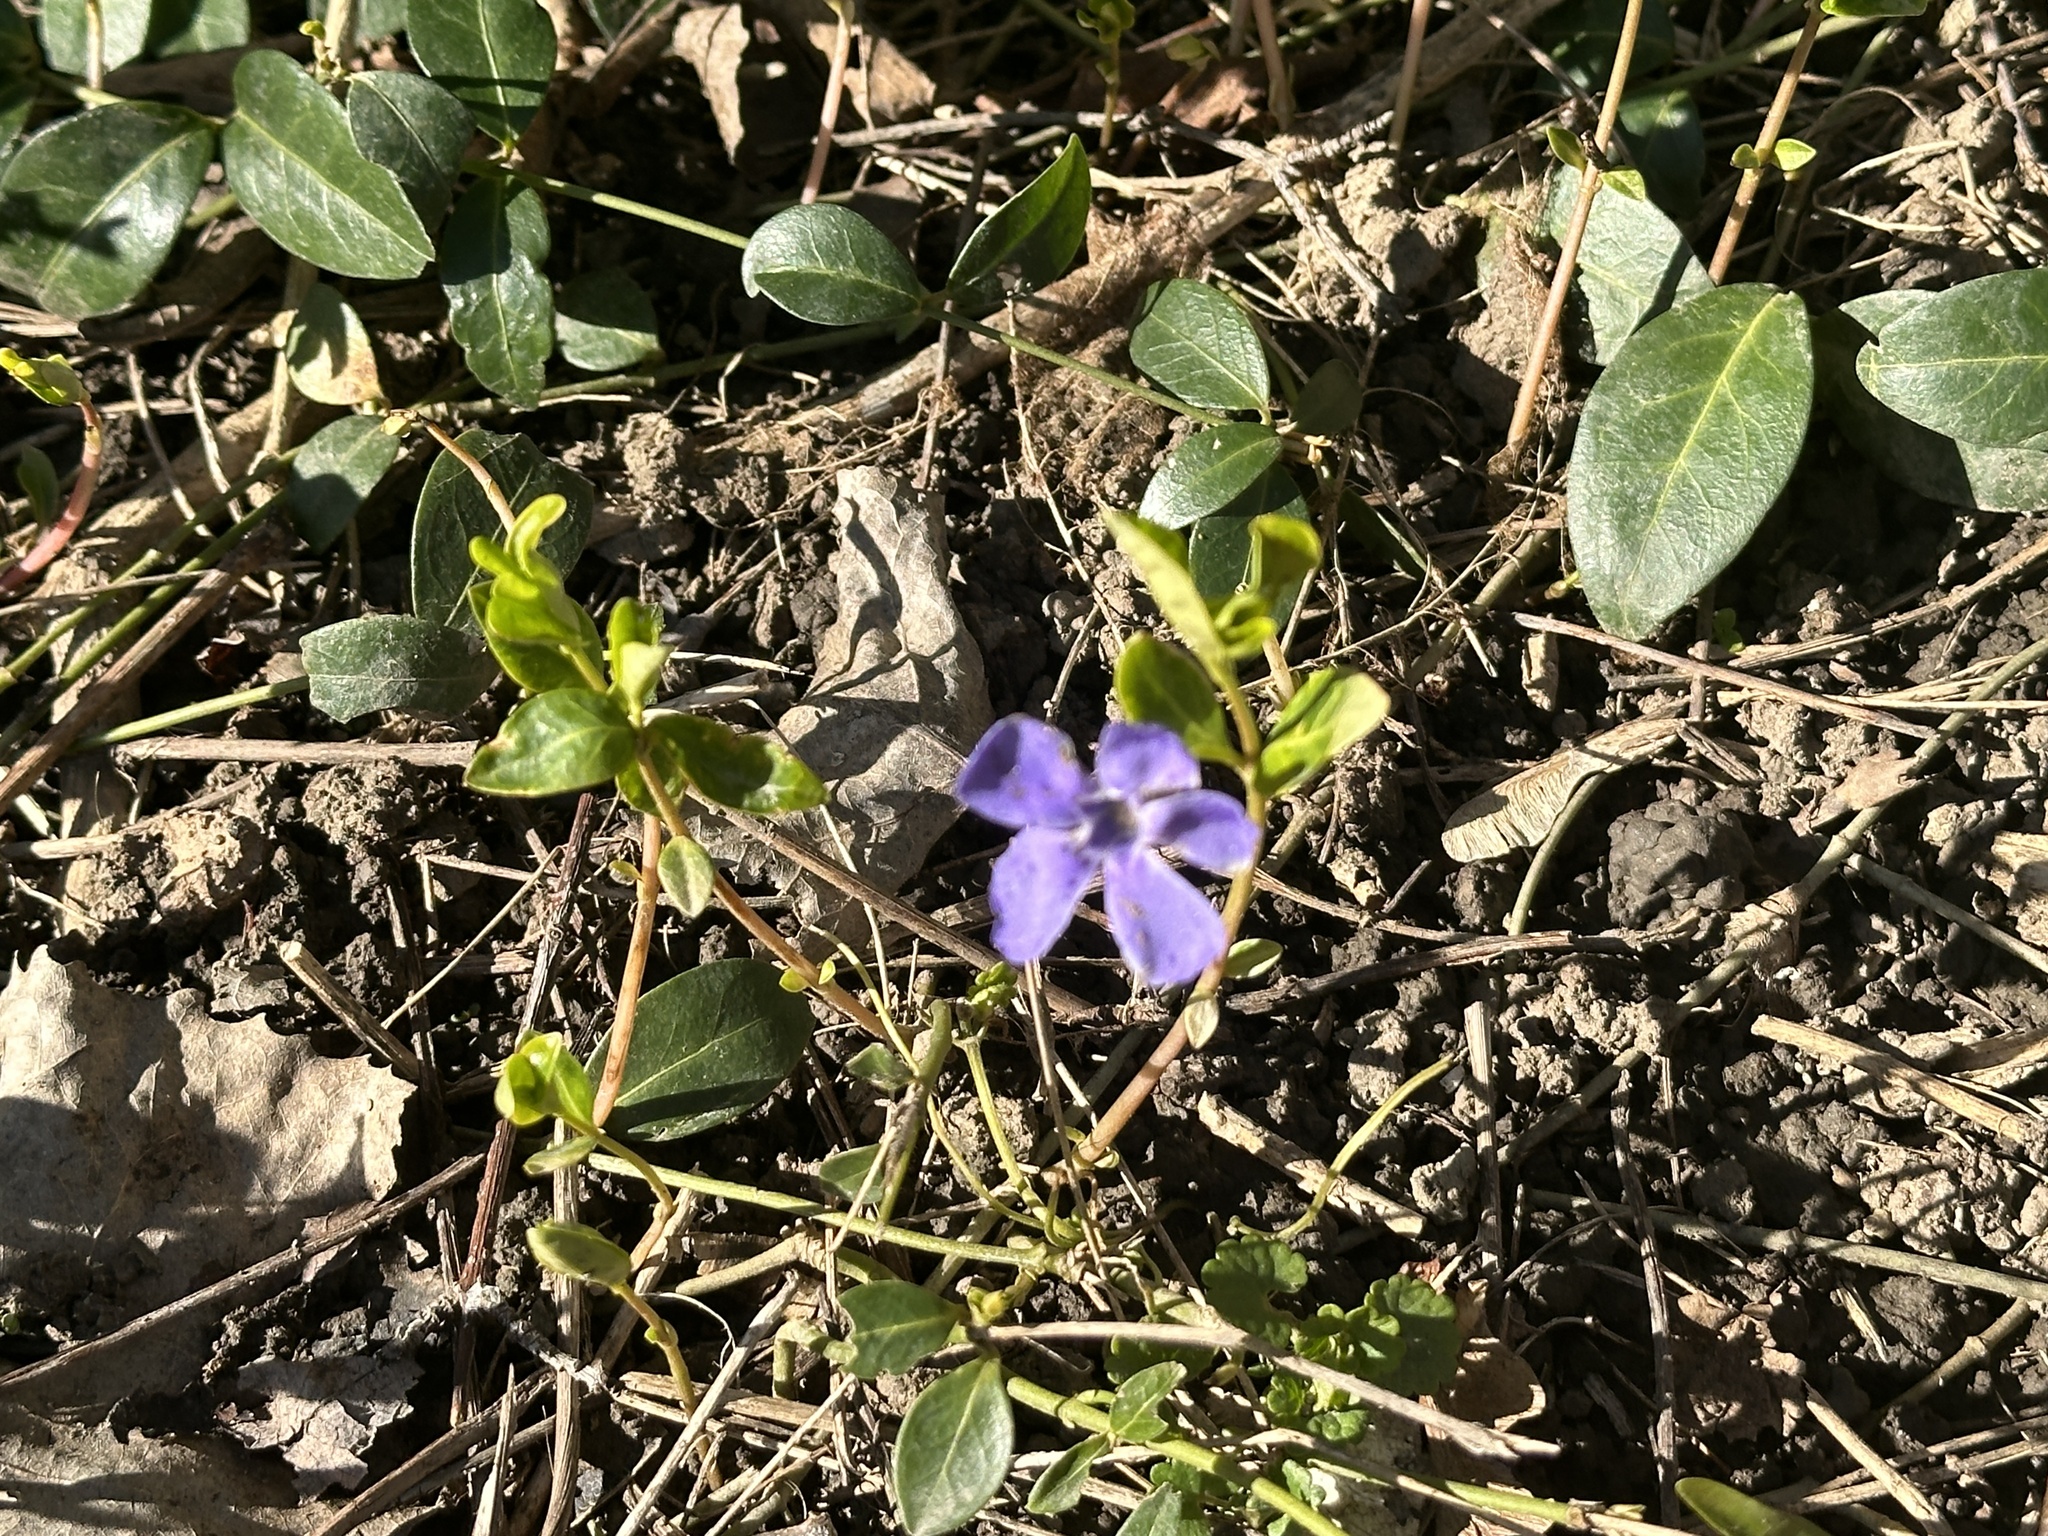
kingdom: Plantae
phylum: Tracheophyta
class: Magnoliopsida
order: Gentianales
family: Apocynaceae
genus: Vinca
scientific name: Vinca minor
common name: Lesser periwinkle
